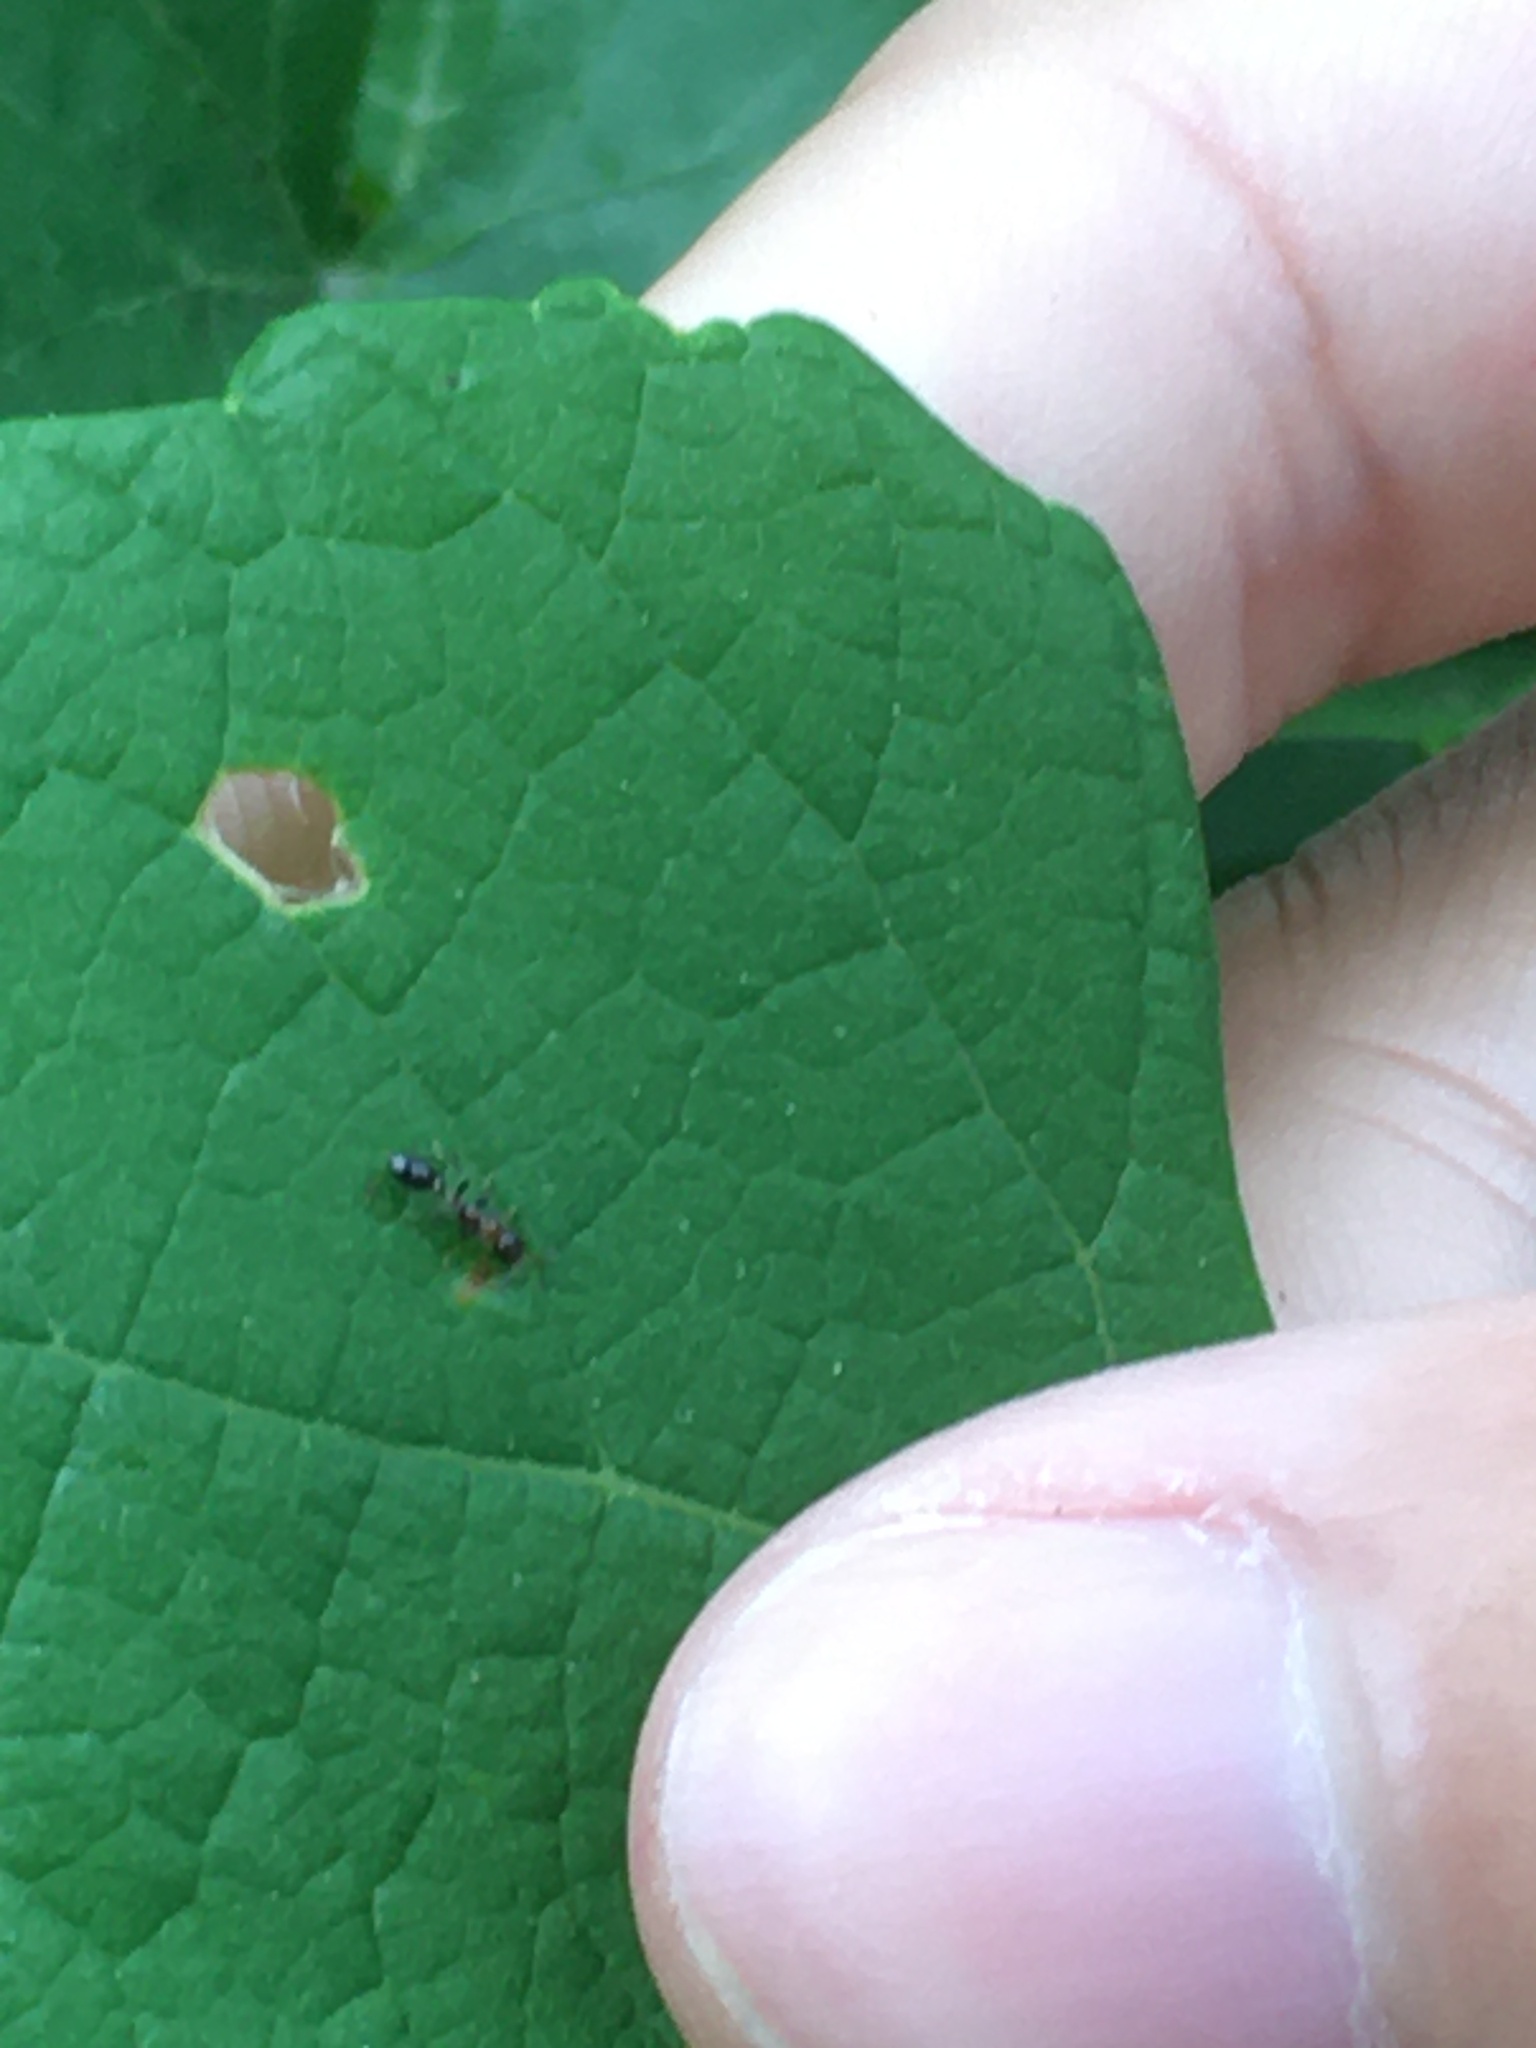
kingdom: Animalia
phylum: Arthropoda
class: Insecta
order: Hymenoptera
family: Formicidae
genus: Pseudomyrmex
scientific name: Pseudomyrmex ejectus
